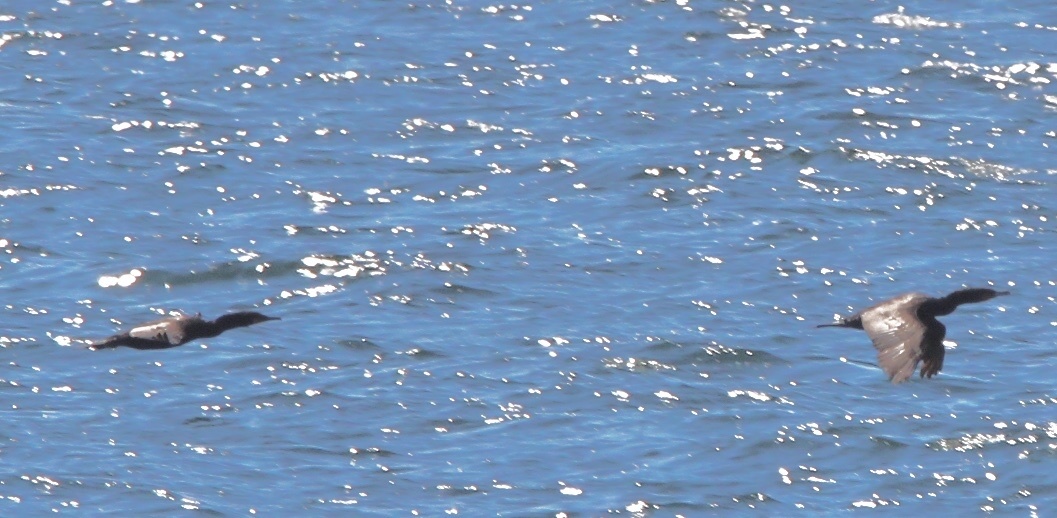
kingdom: Animalia
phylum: Chordata
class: Aves
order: Suliformes
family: Phalacrocoracidae
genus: Phalacrocorax
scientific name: Phalacrocorax auritus
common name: Double-crested cormorant
